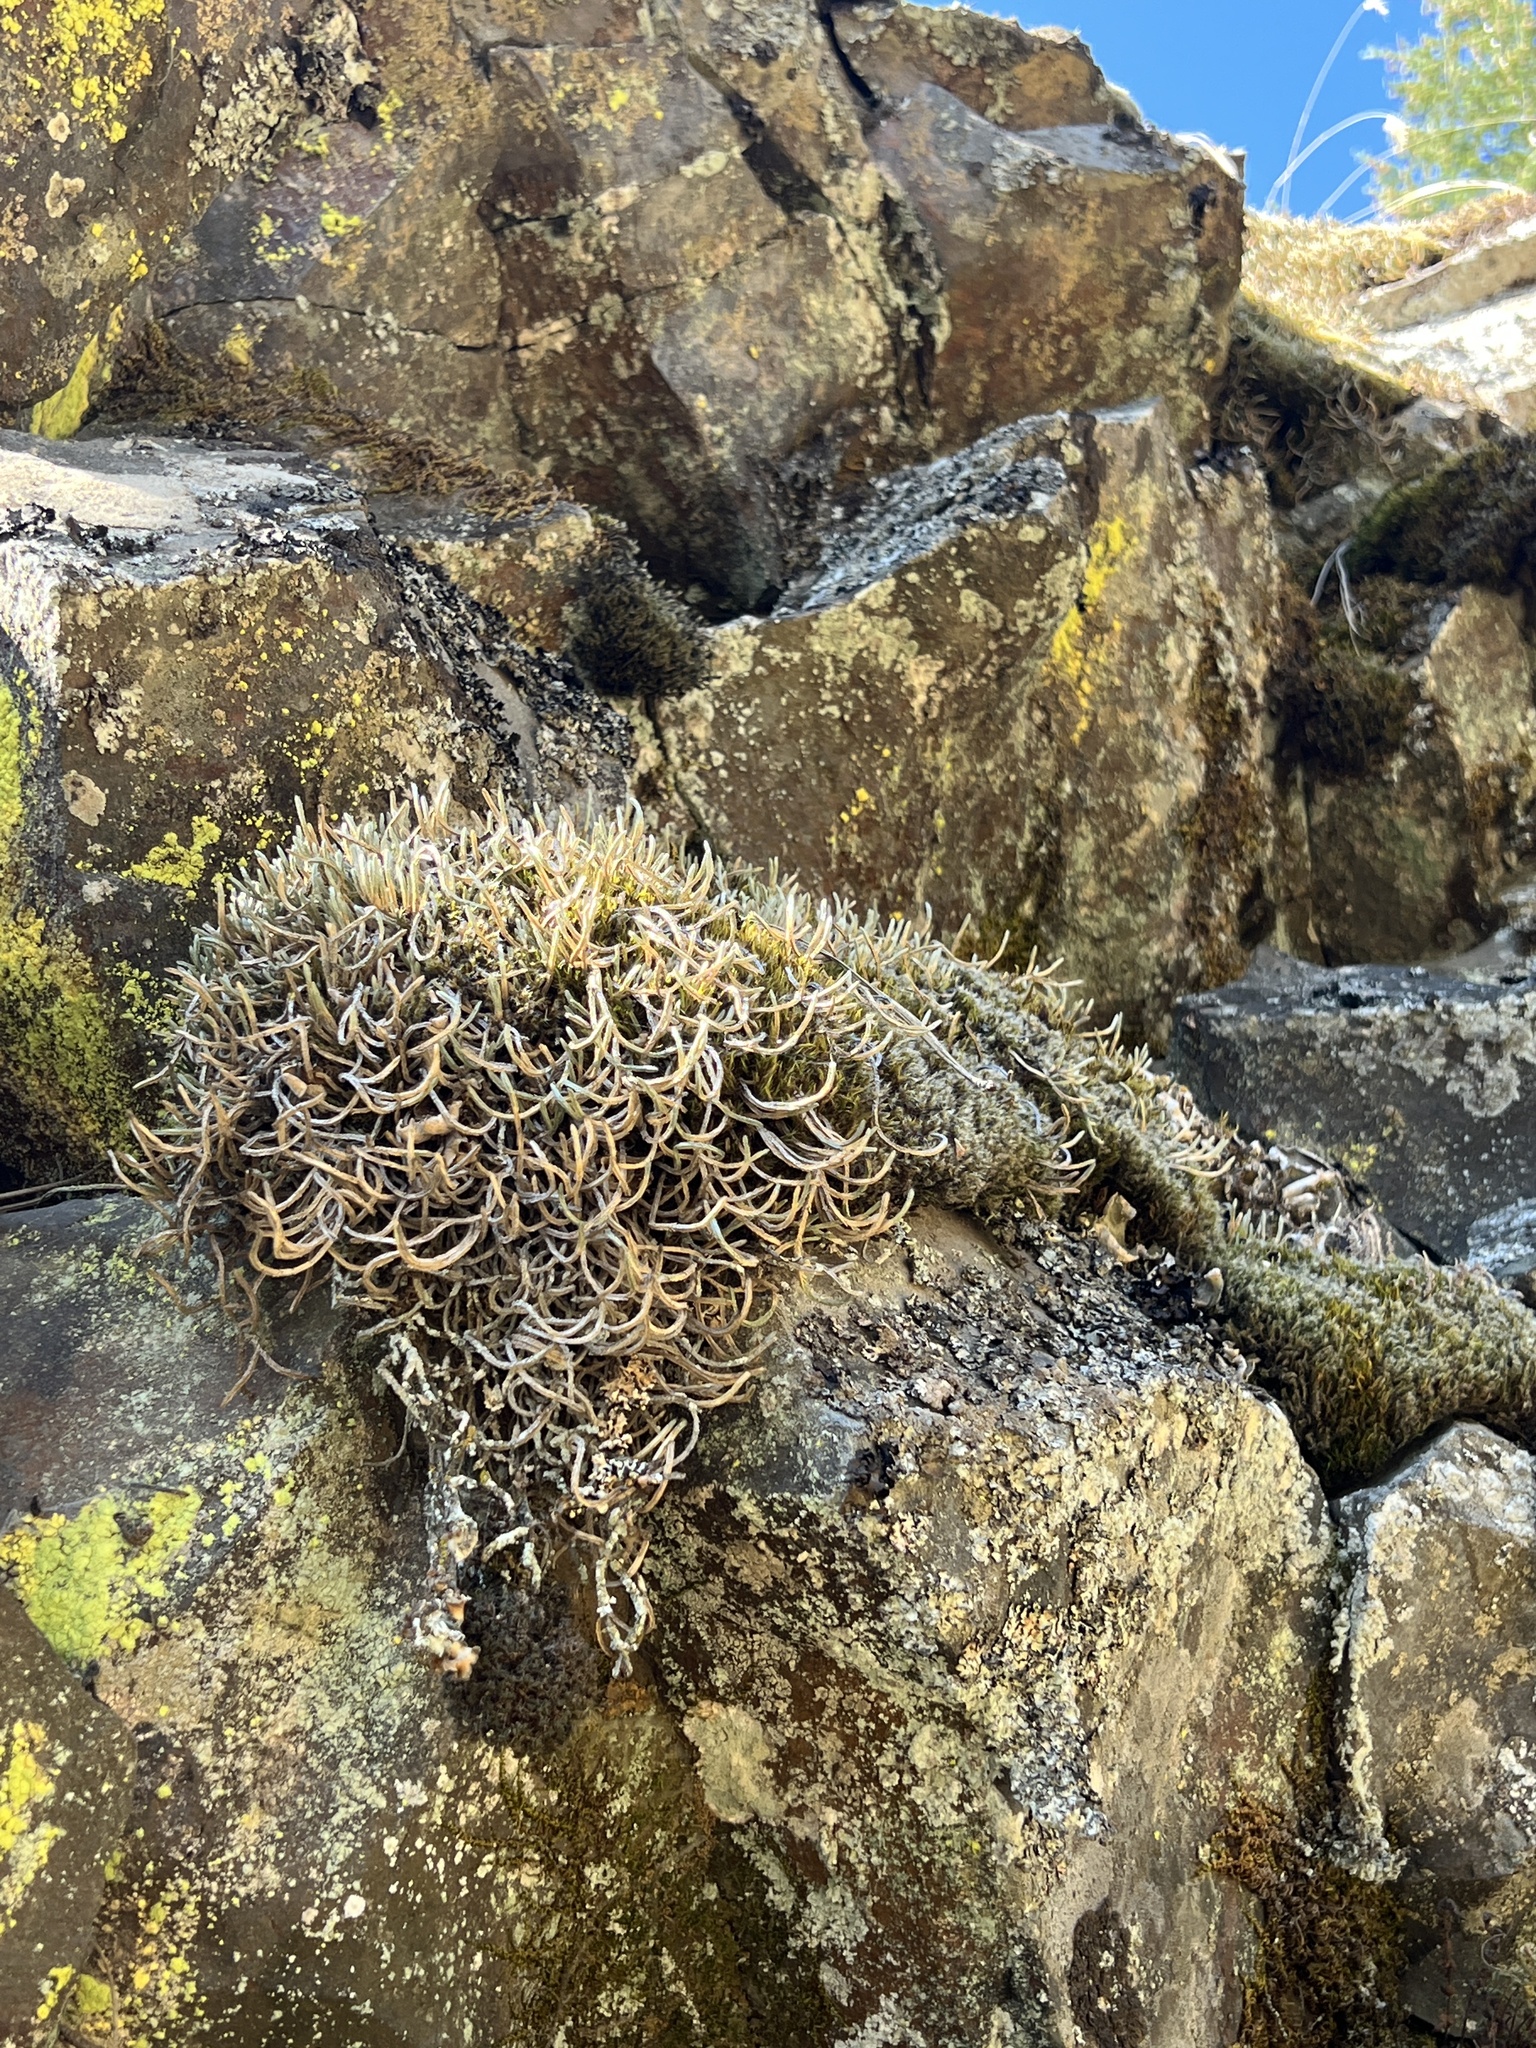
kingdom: Plantae
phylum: Tracheophyta
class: Lycopodiopsida
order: Selaginellales
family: Selaginellaceae
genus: Selaginella
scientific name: Selaginella wallacei
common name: Wallace's selaginella
